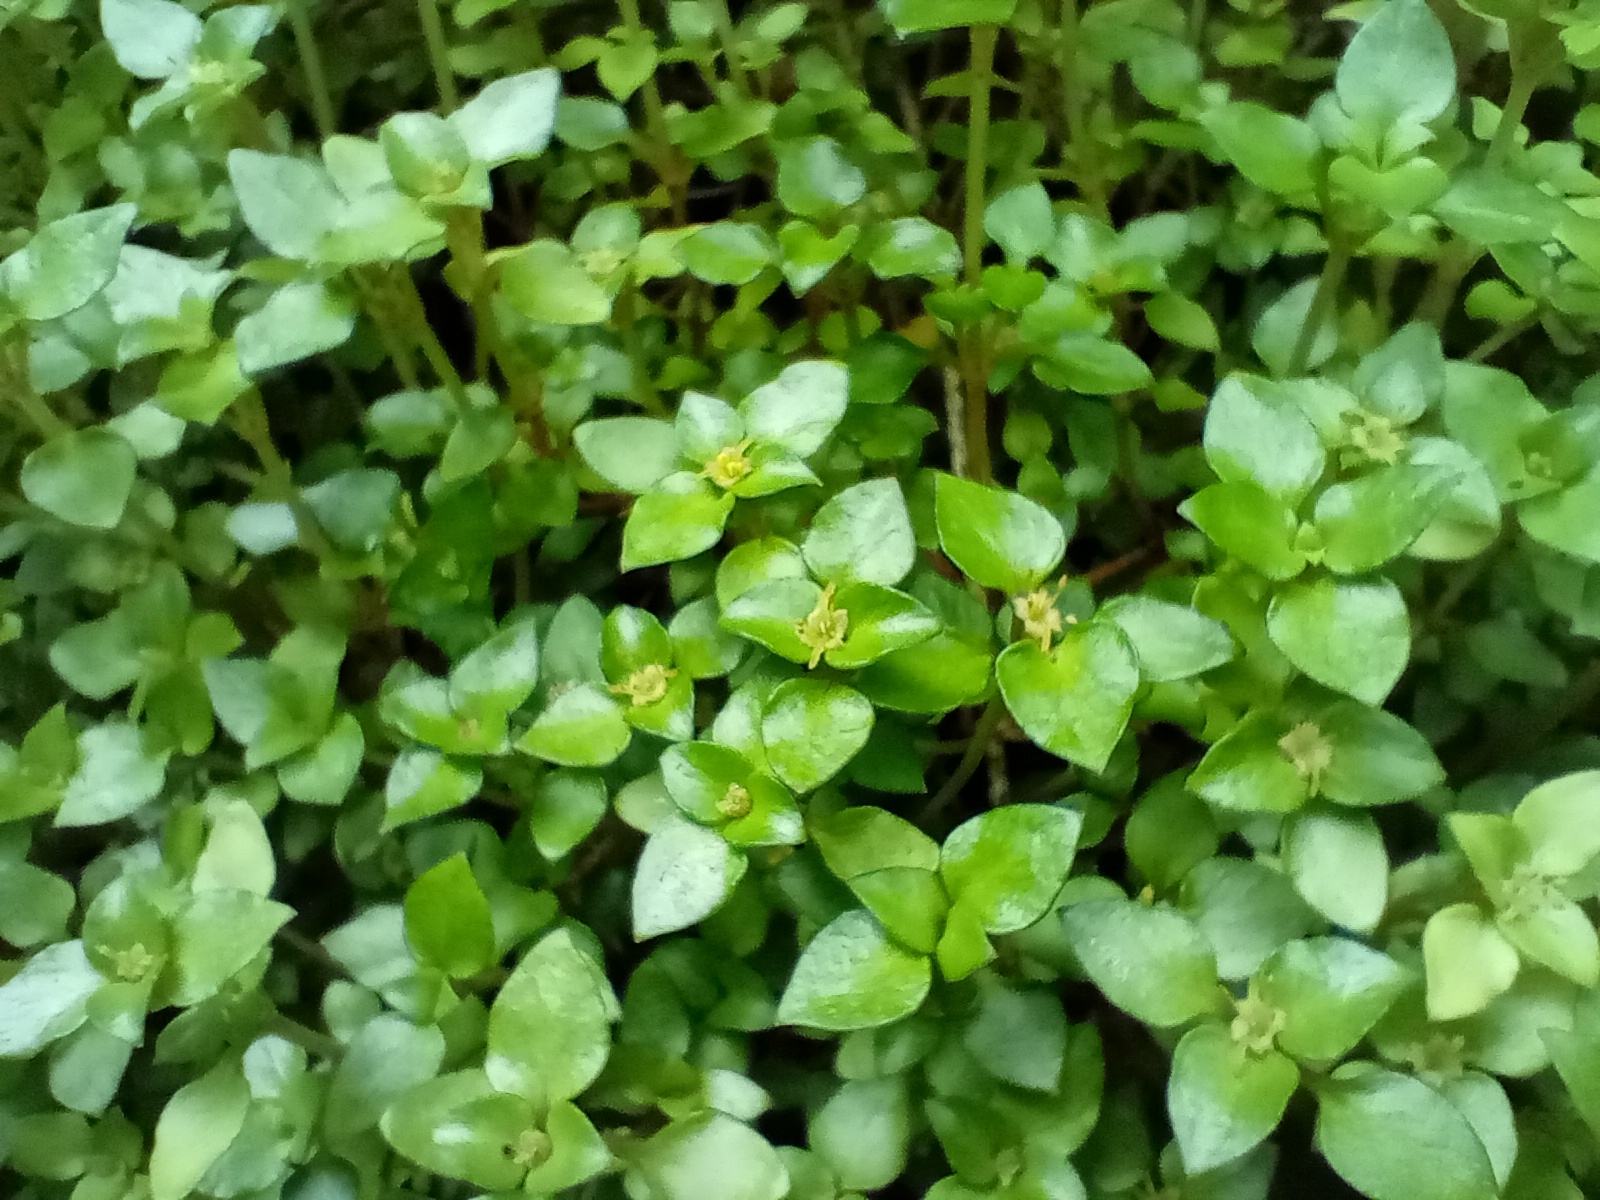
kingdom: Plantae
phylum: Tracheophyta
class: Magnoliopsida
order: Gentianales
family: Rubiaceae
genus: Nertera
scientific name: Nertera granadensis
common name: Beadplant
